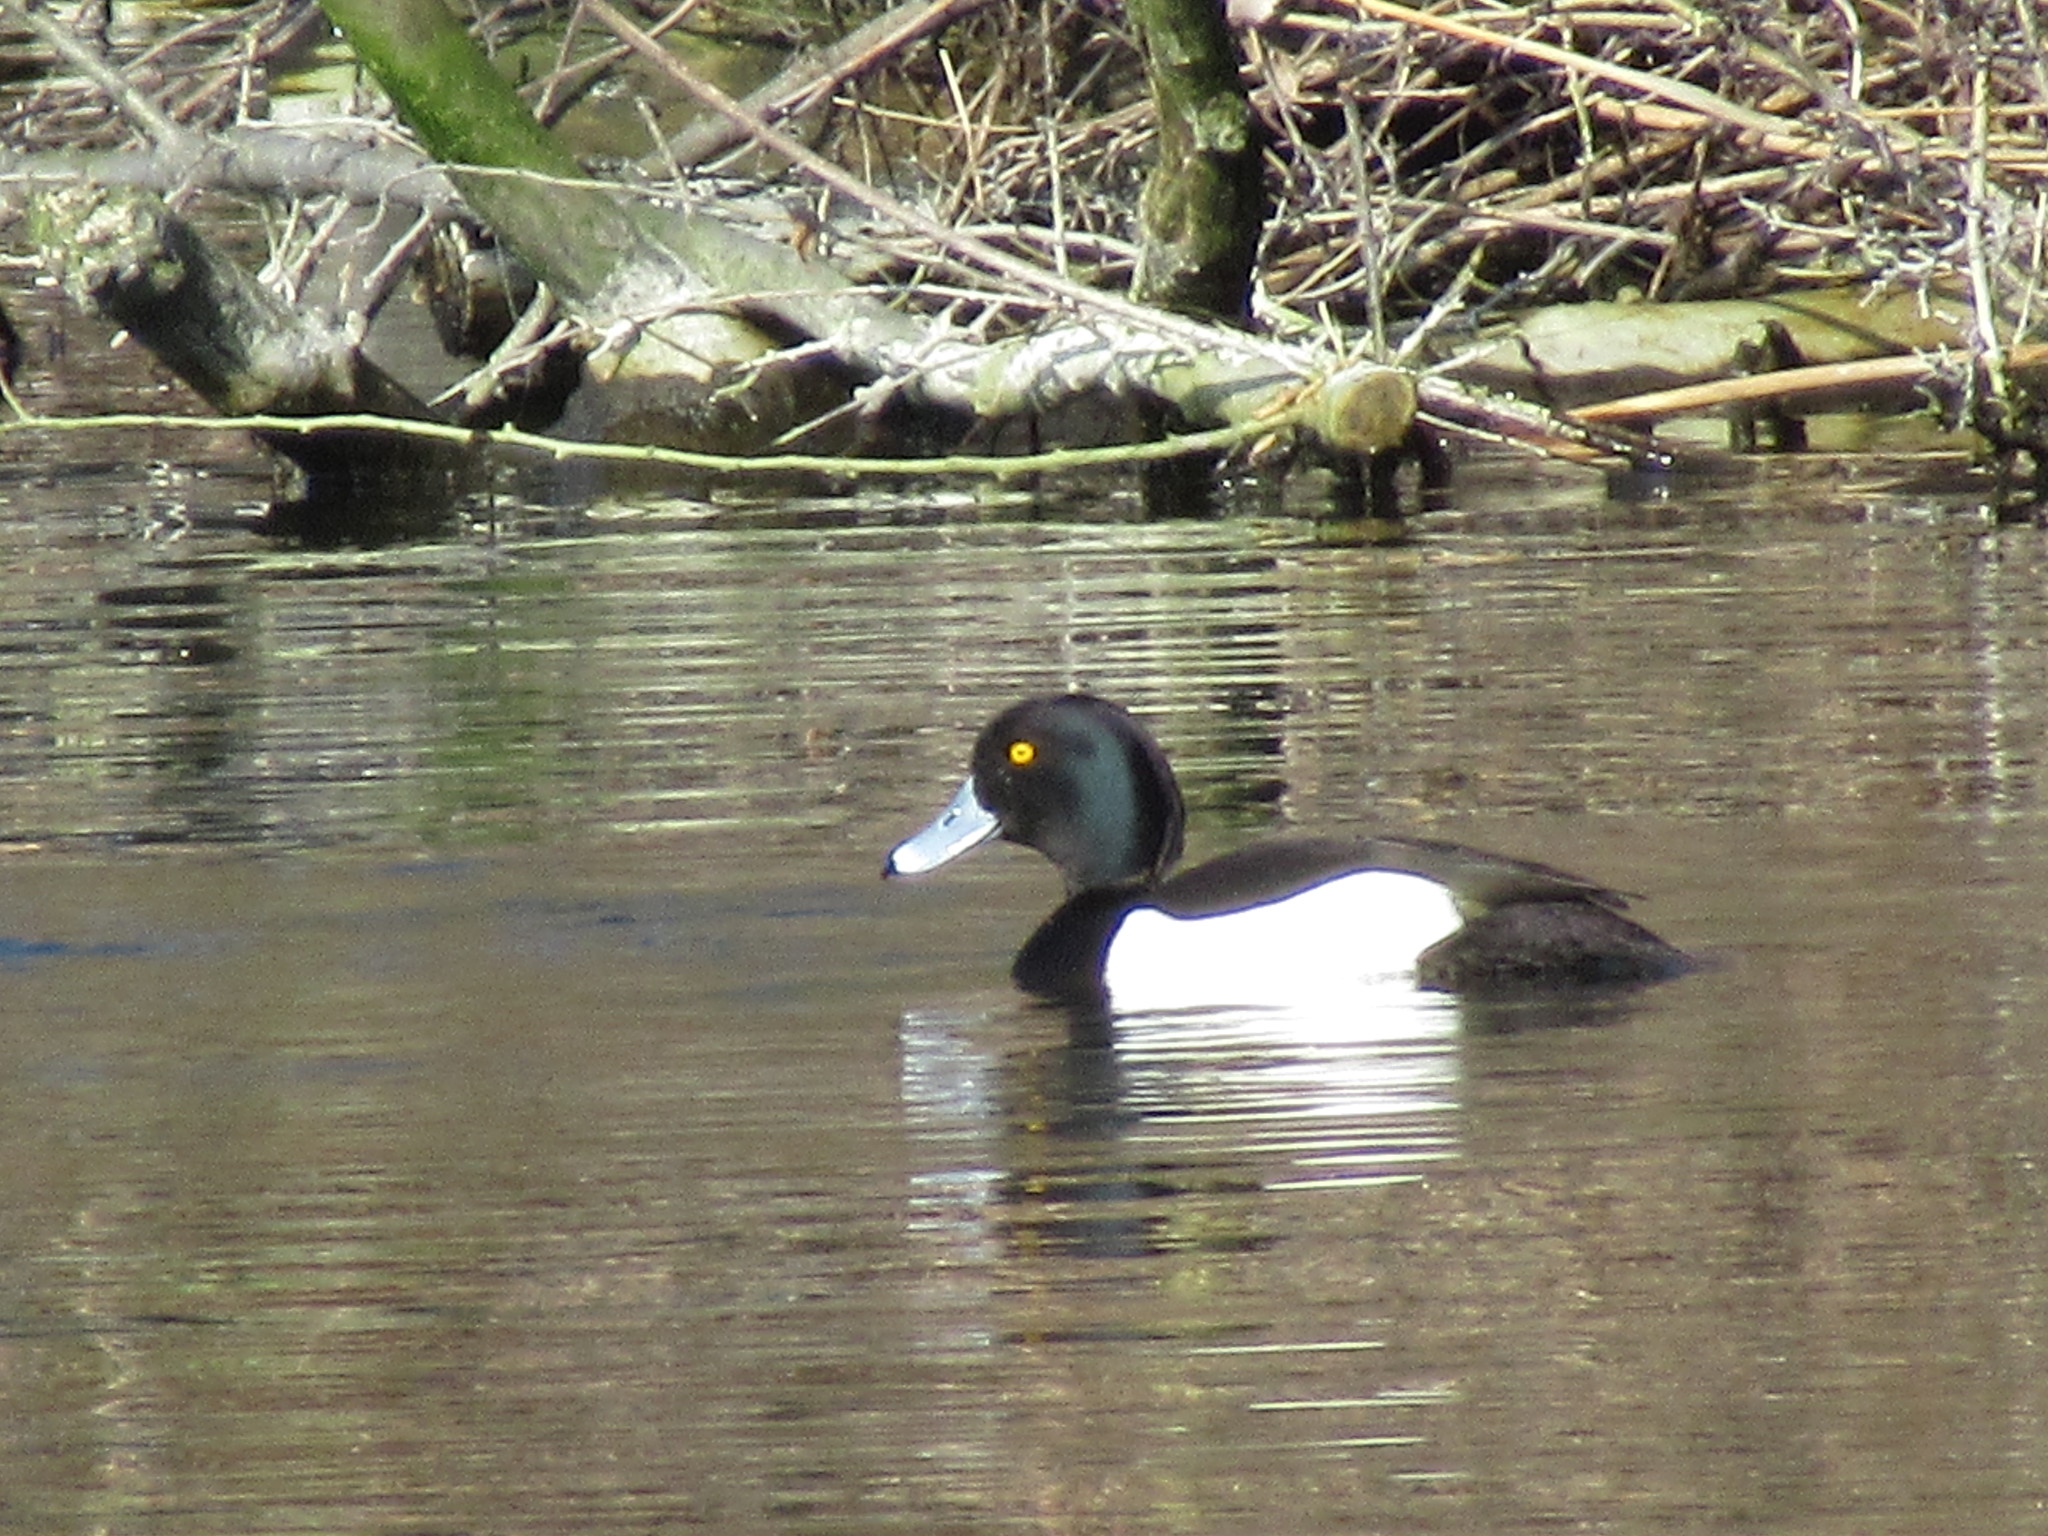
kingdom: Animalia
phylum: Chordata
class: Aves
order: Anseriformes
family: Anatidae
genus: Aythya
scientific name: Aythya fuligula
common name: Tufted duck
